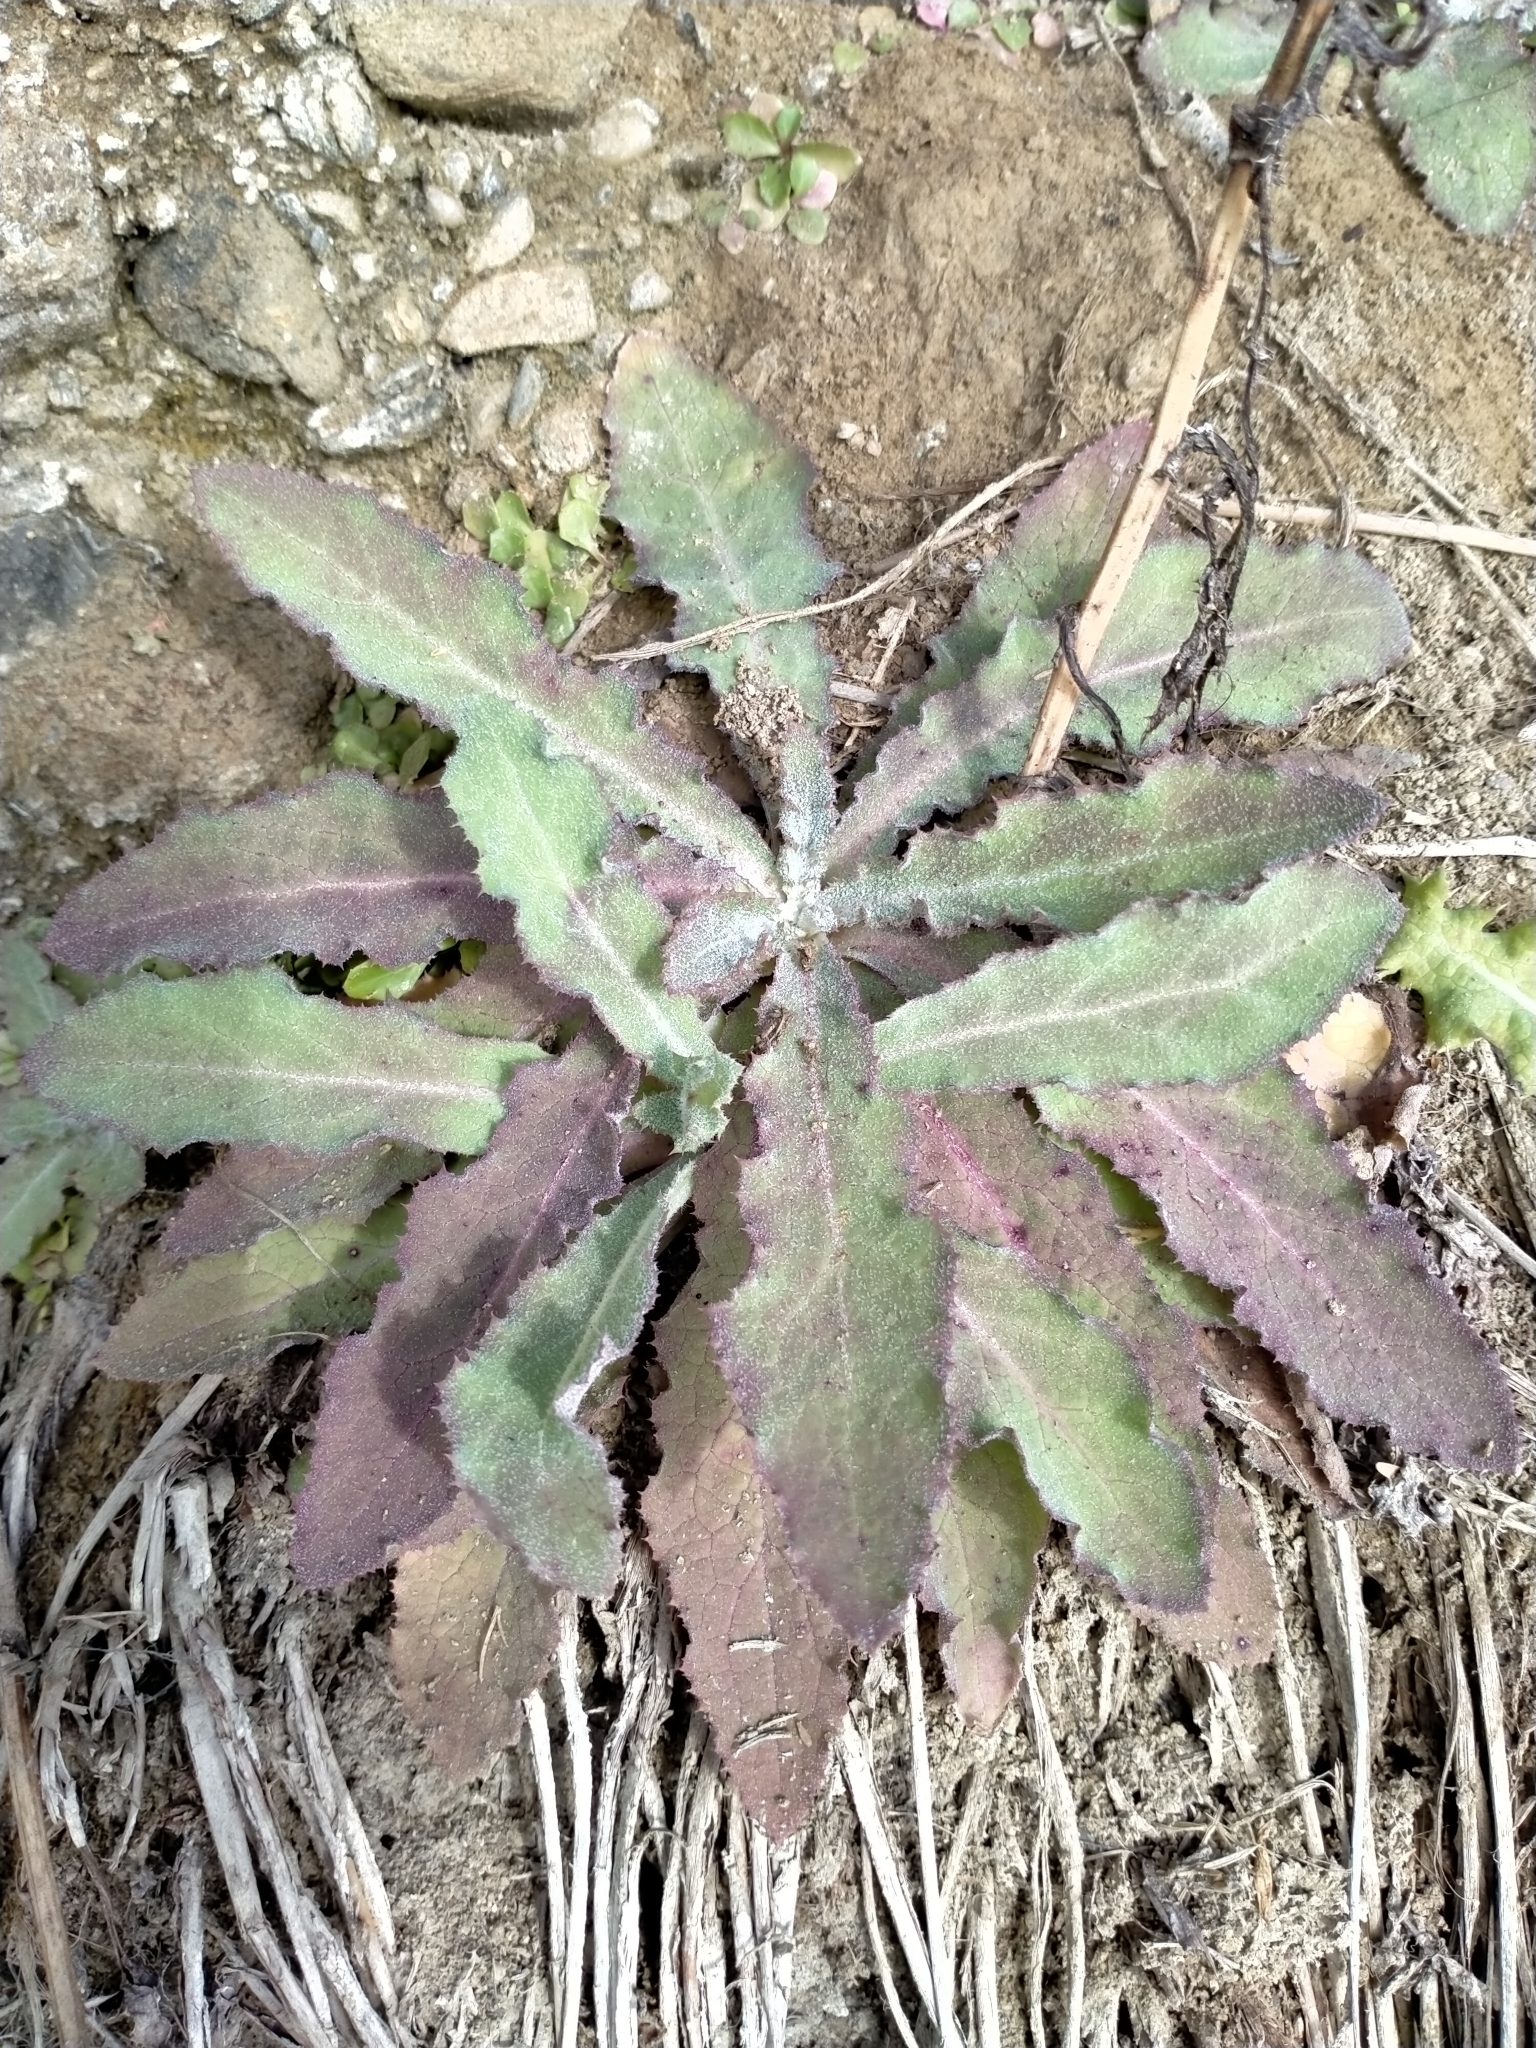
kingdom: Plantae
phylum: Tracheophyta
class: Magnoliopsida
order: Asterales
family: Asteraceae
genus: Sonchus
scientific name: Sonchus kirkii
